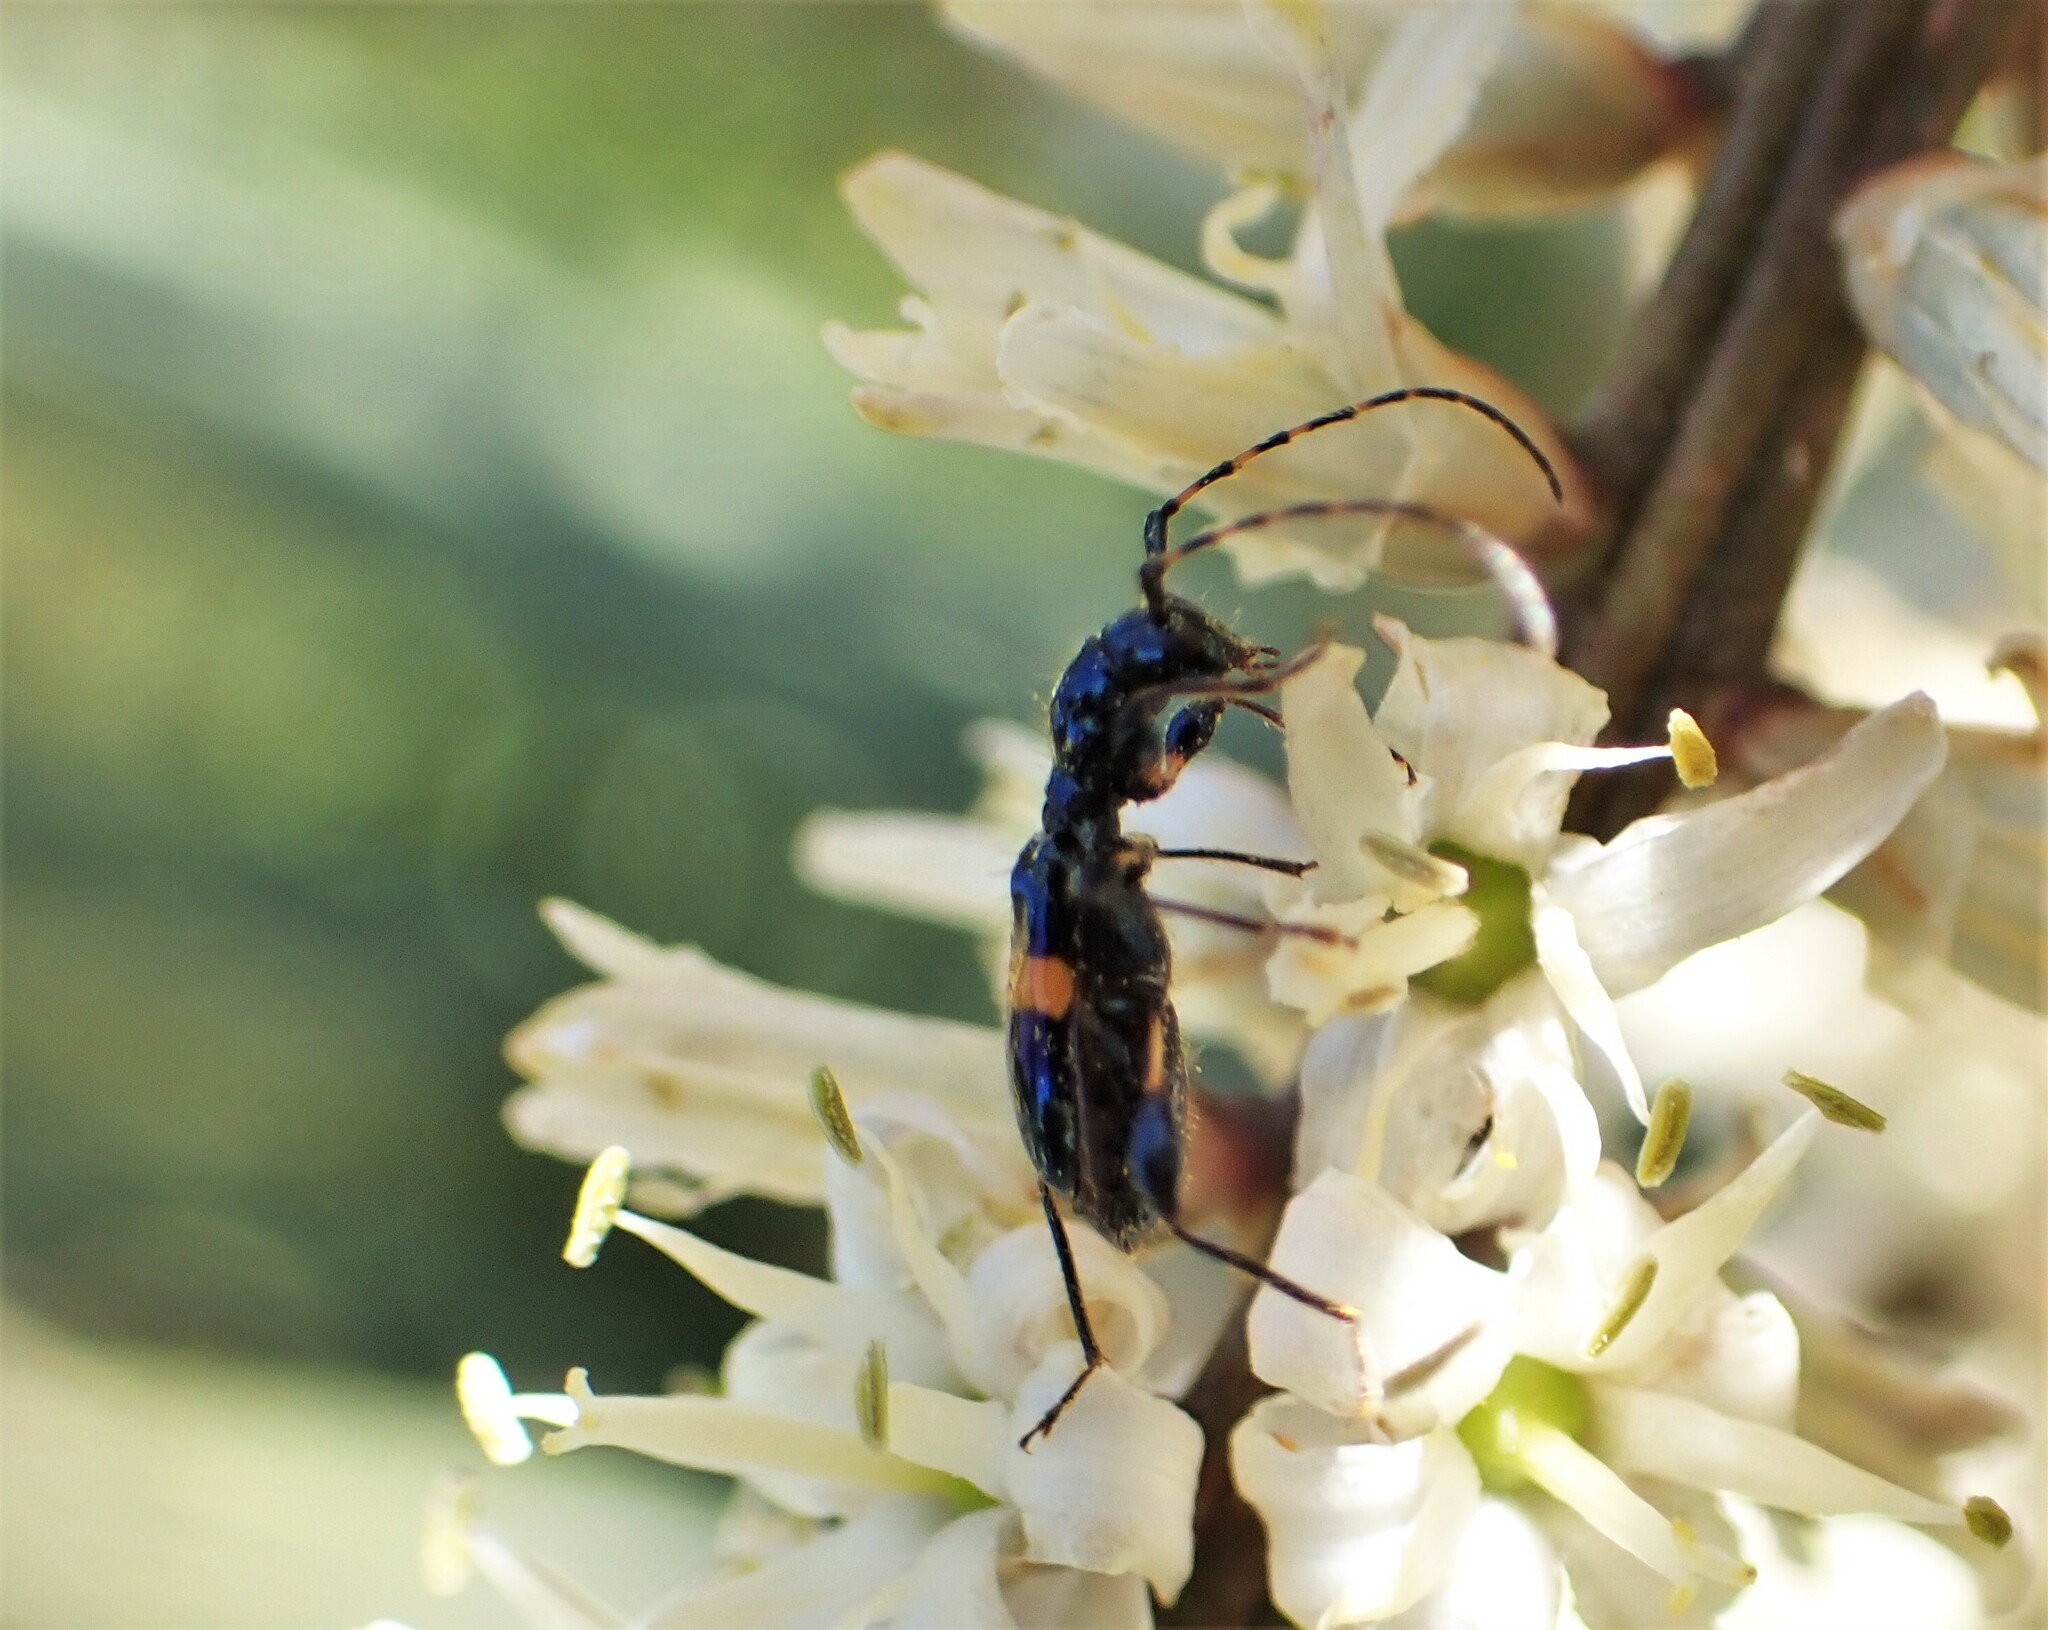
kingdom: Animalia
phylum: Arthropoda
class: Insecta
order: Coleoptera
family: Cerambycidae
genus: Zorion
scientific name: Zorion guttigerum
